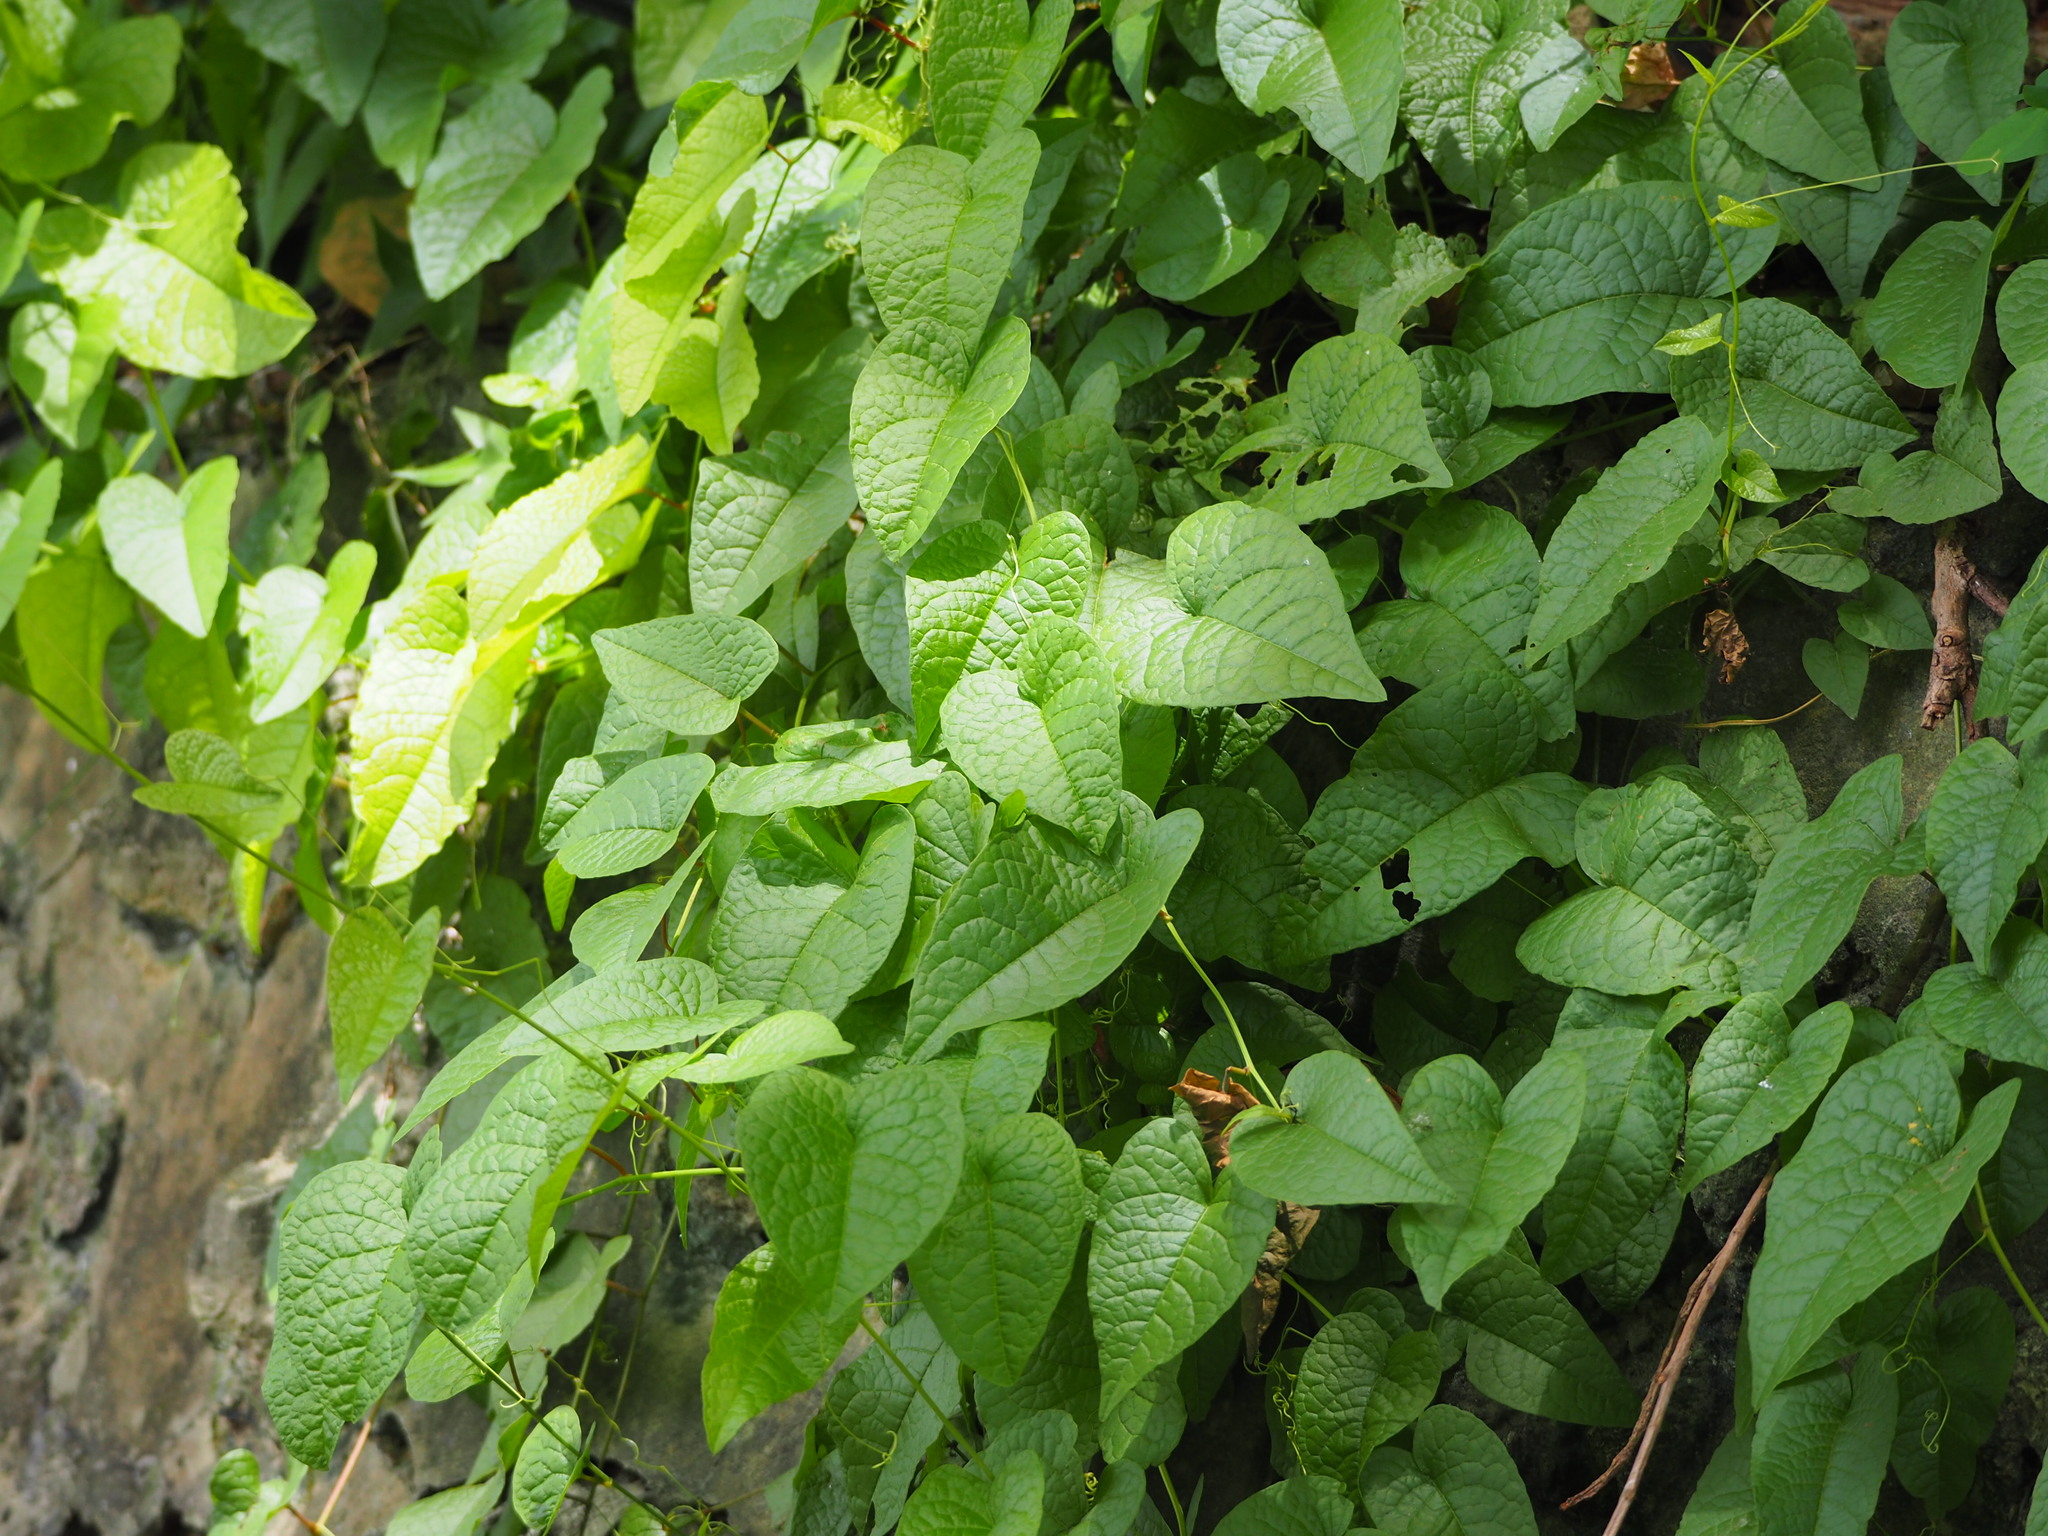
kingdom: Plantae
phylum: Tracheophyta
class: Magnoliopsida
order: Caryophyllales
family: Polygonaceae
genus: Antigonon
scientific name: Antigonon leptopus
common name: Coral vine
